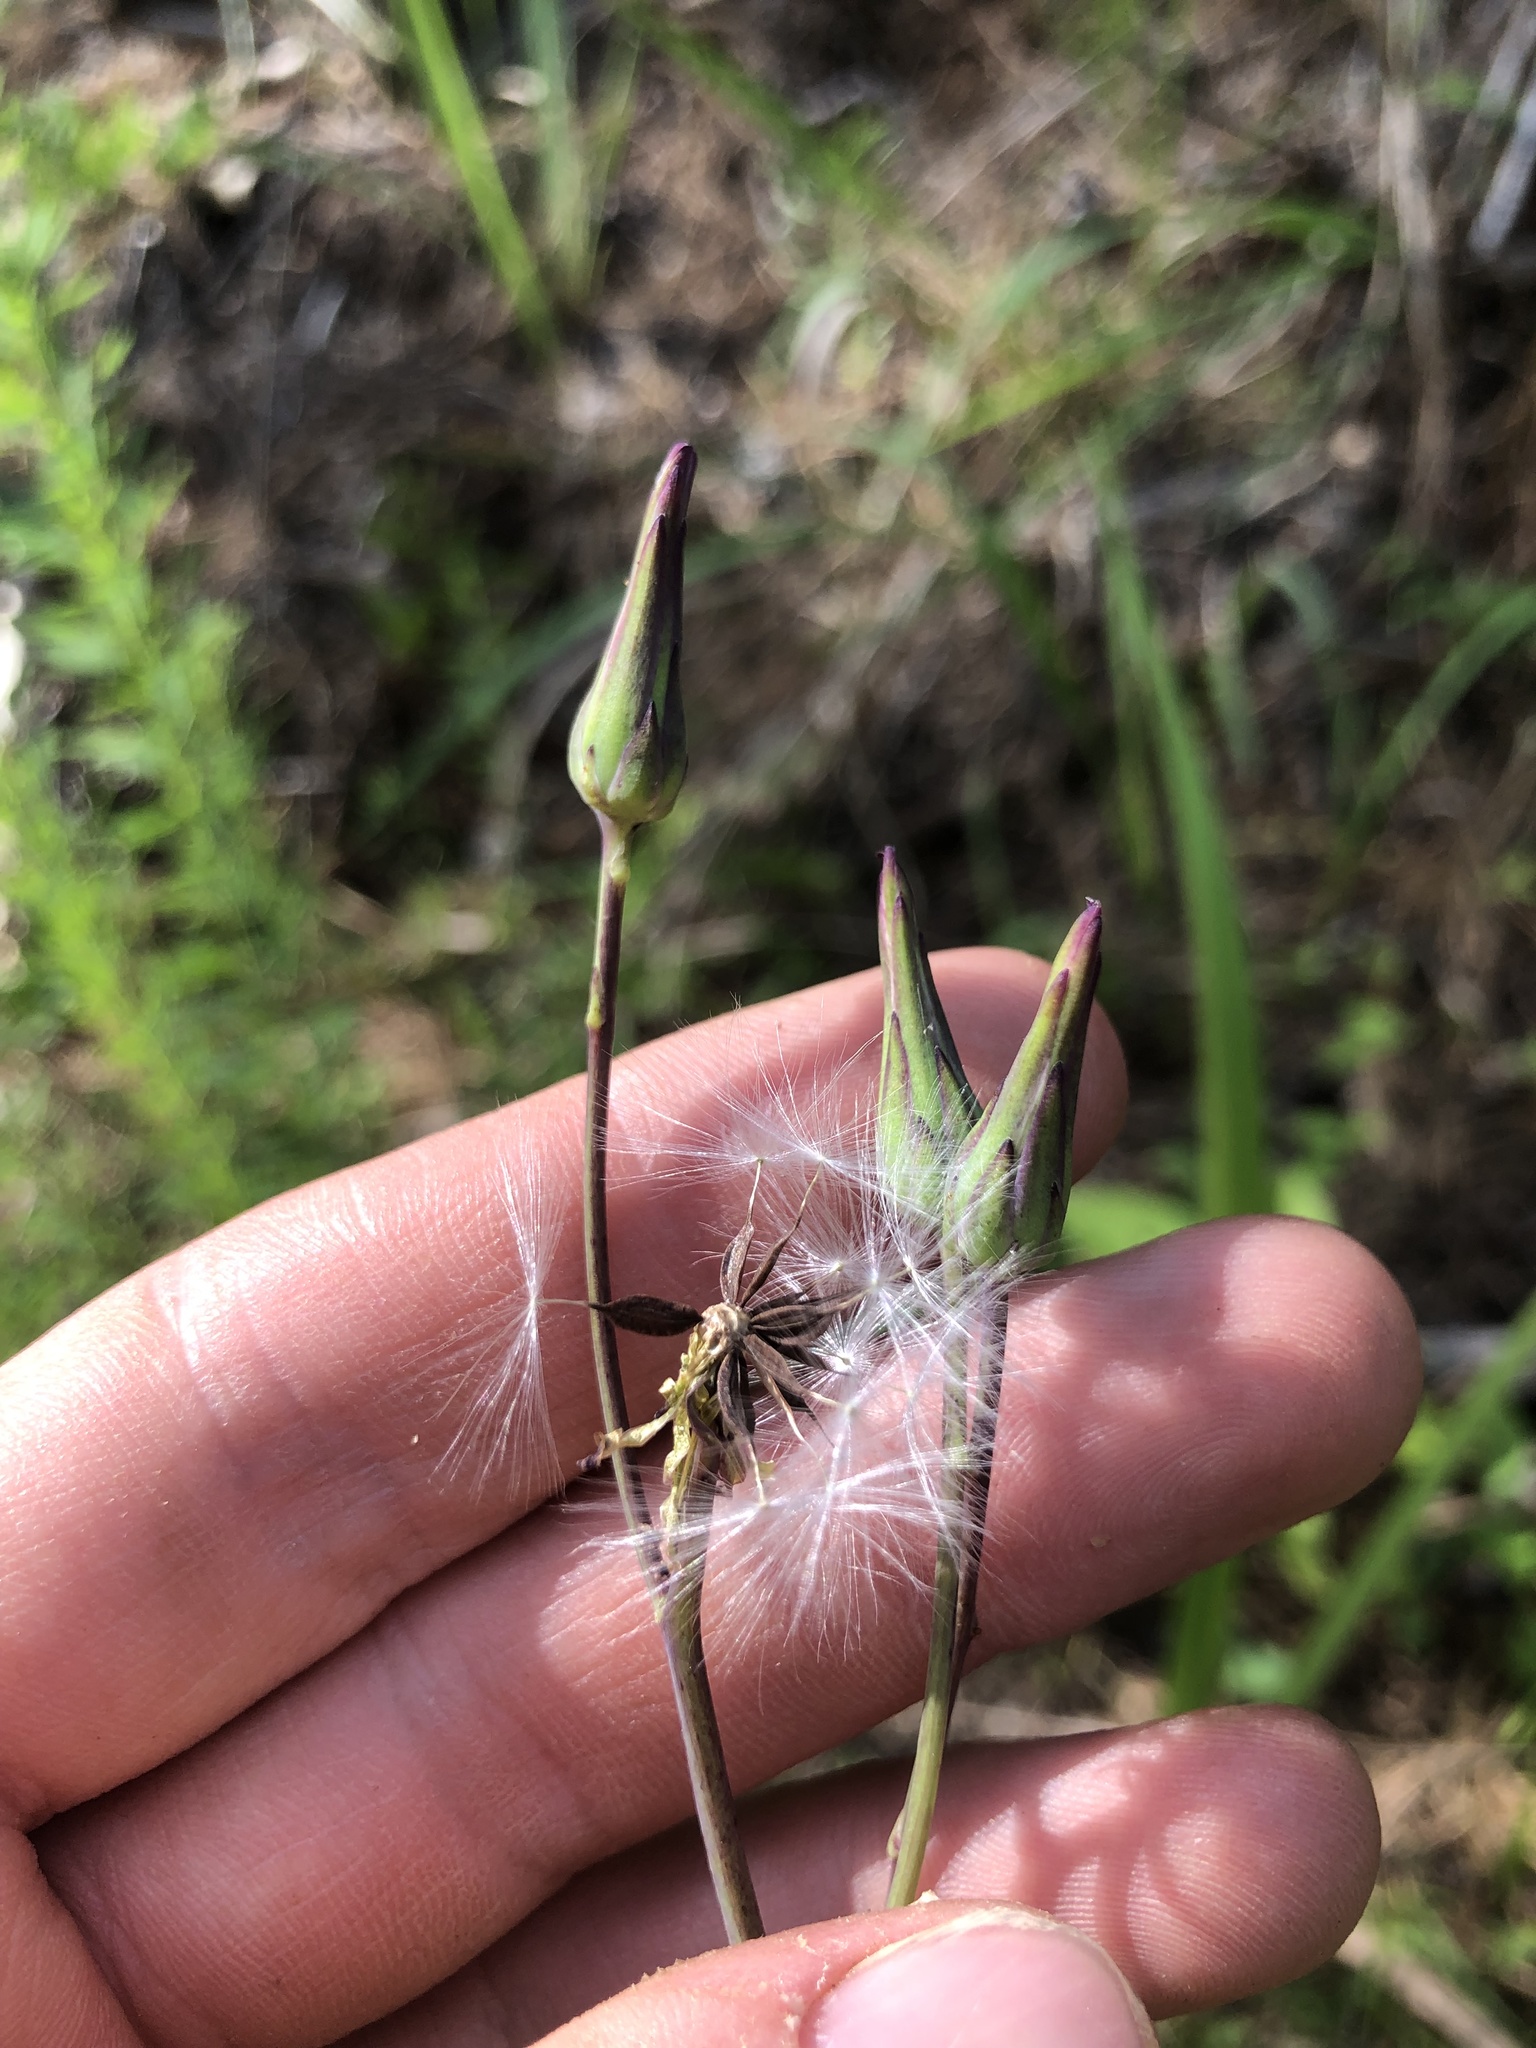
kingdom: Plantae
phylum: Tracheophyta
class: Magnoliopsida
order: Asterales
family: Asteraceae
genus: Lactuca
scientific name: Lactuca graminifolia
